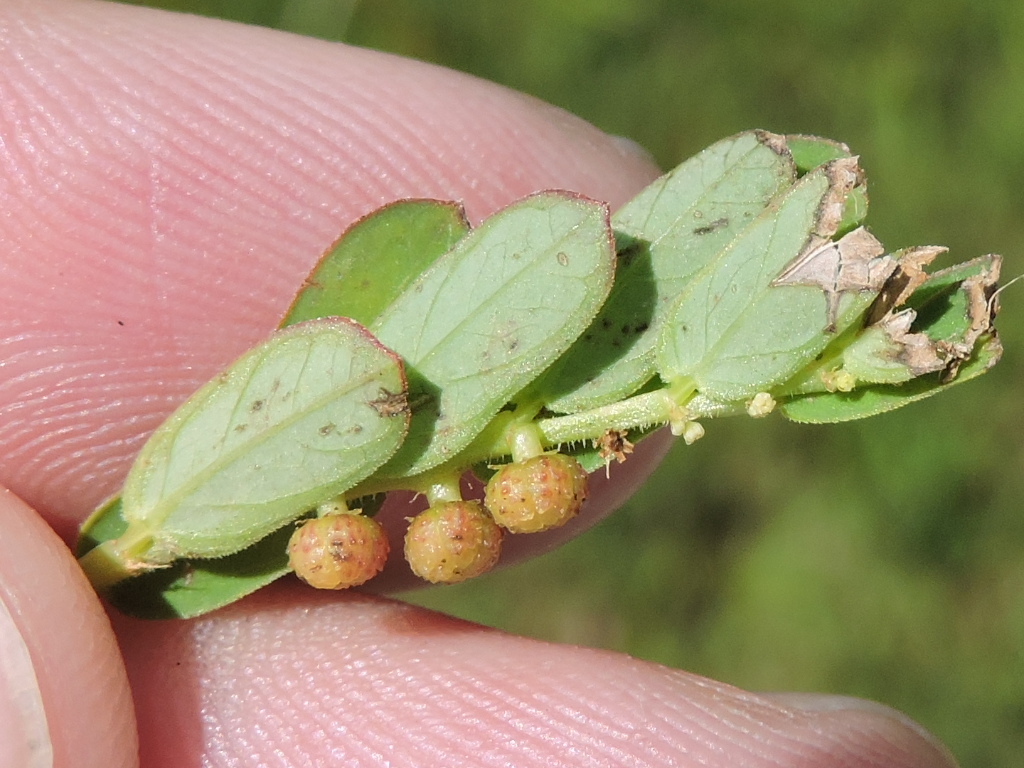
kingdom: Plantae
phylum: Tracheophyta
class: Magnoliopsida
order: Malpighiales
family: Phyllanthaceae
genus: Phyllanthus
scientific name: Phyllanthus urinaria
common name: Chamber bitter
